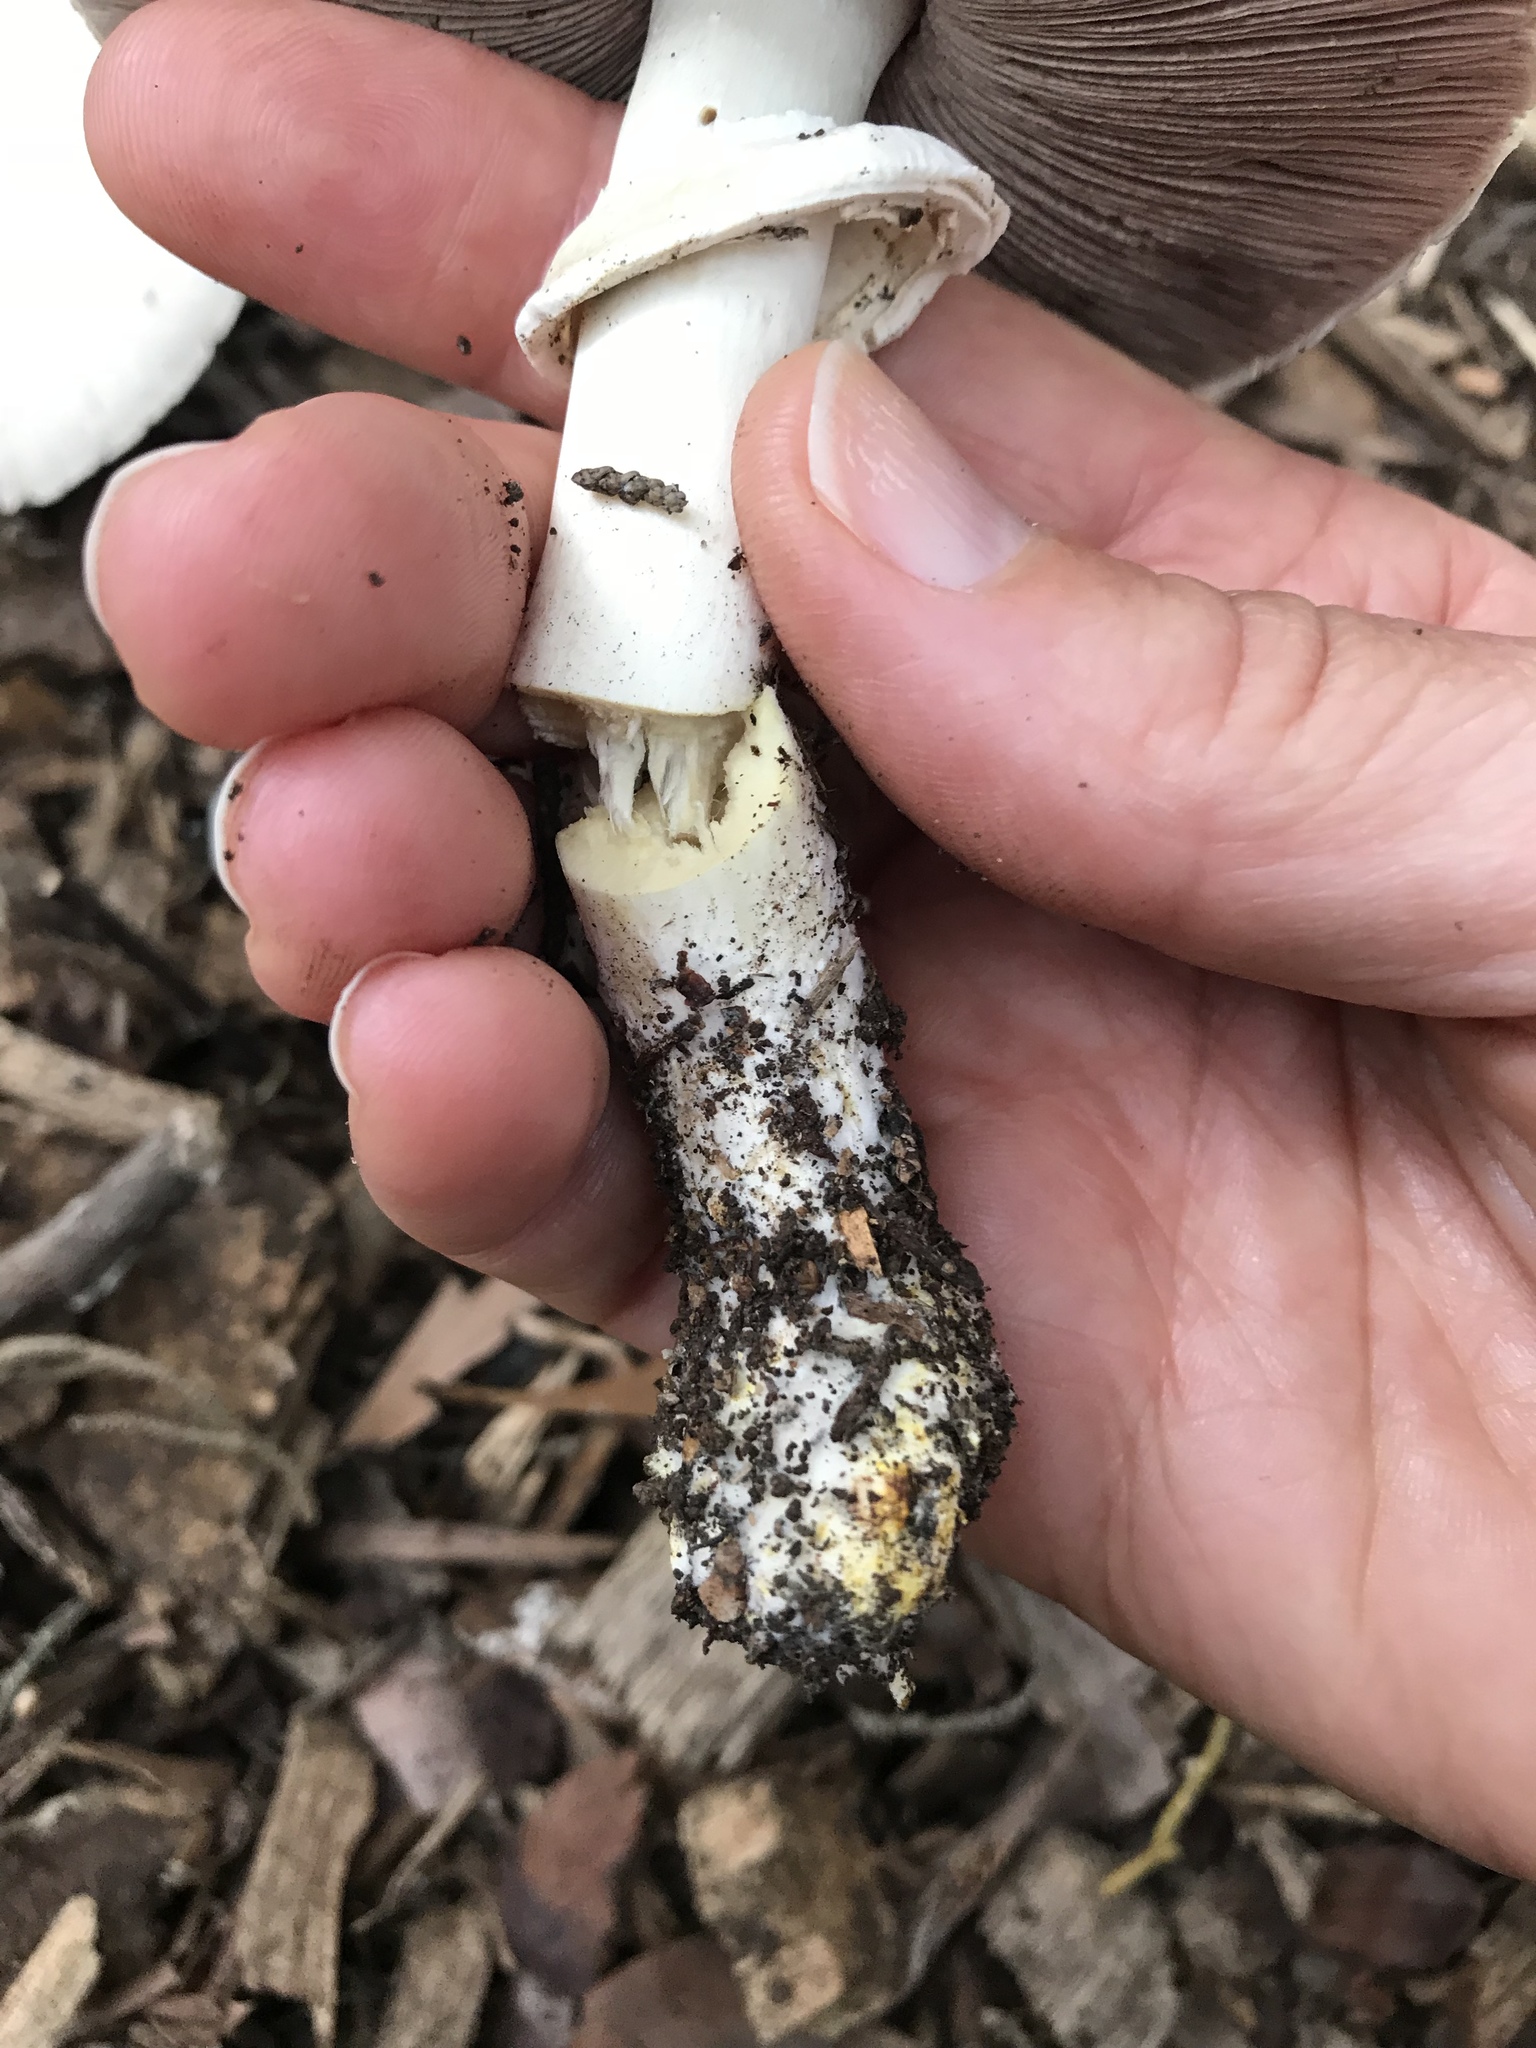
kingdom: Fungi
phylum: Basidiomycota
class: Agaricomycetes
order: Agaricales
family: Agaricaceae
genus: Agaricus
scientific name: Agaricus xanthodermus
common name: Yellow stainer
